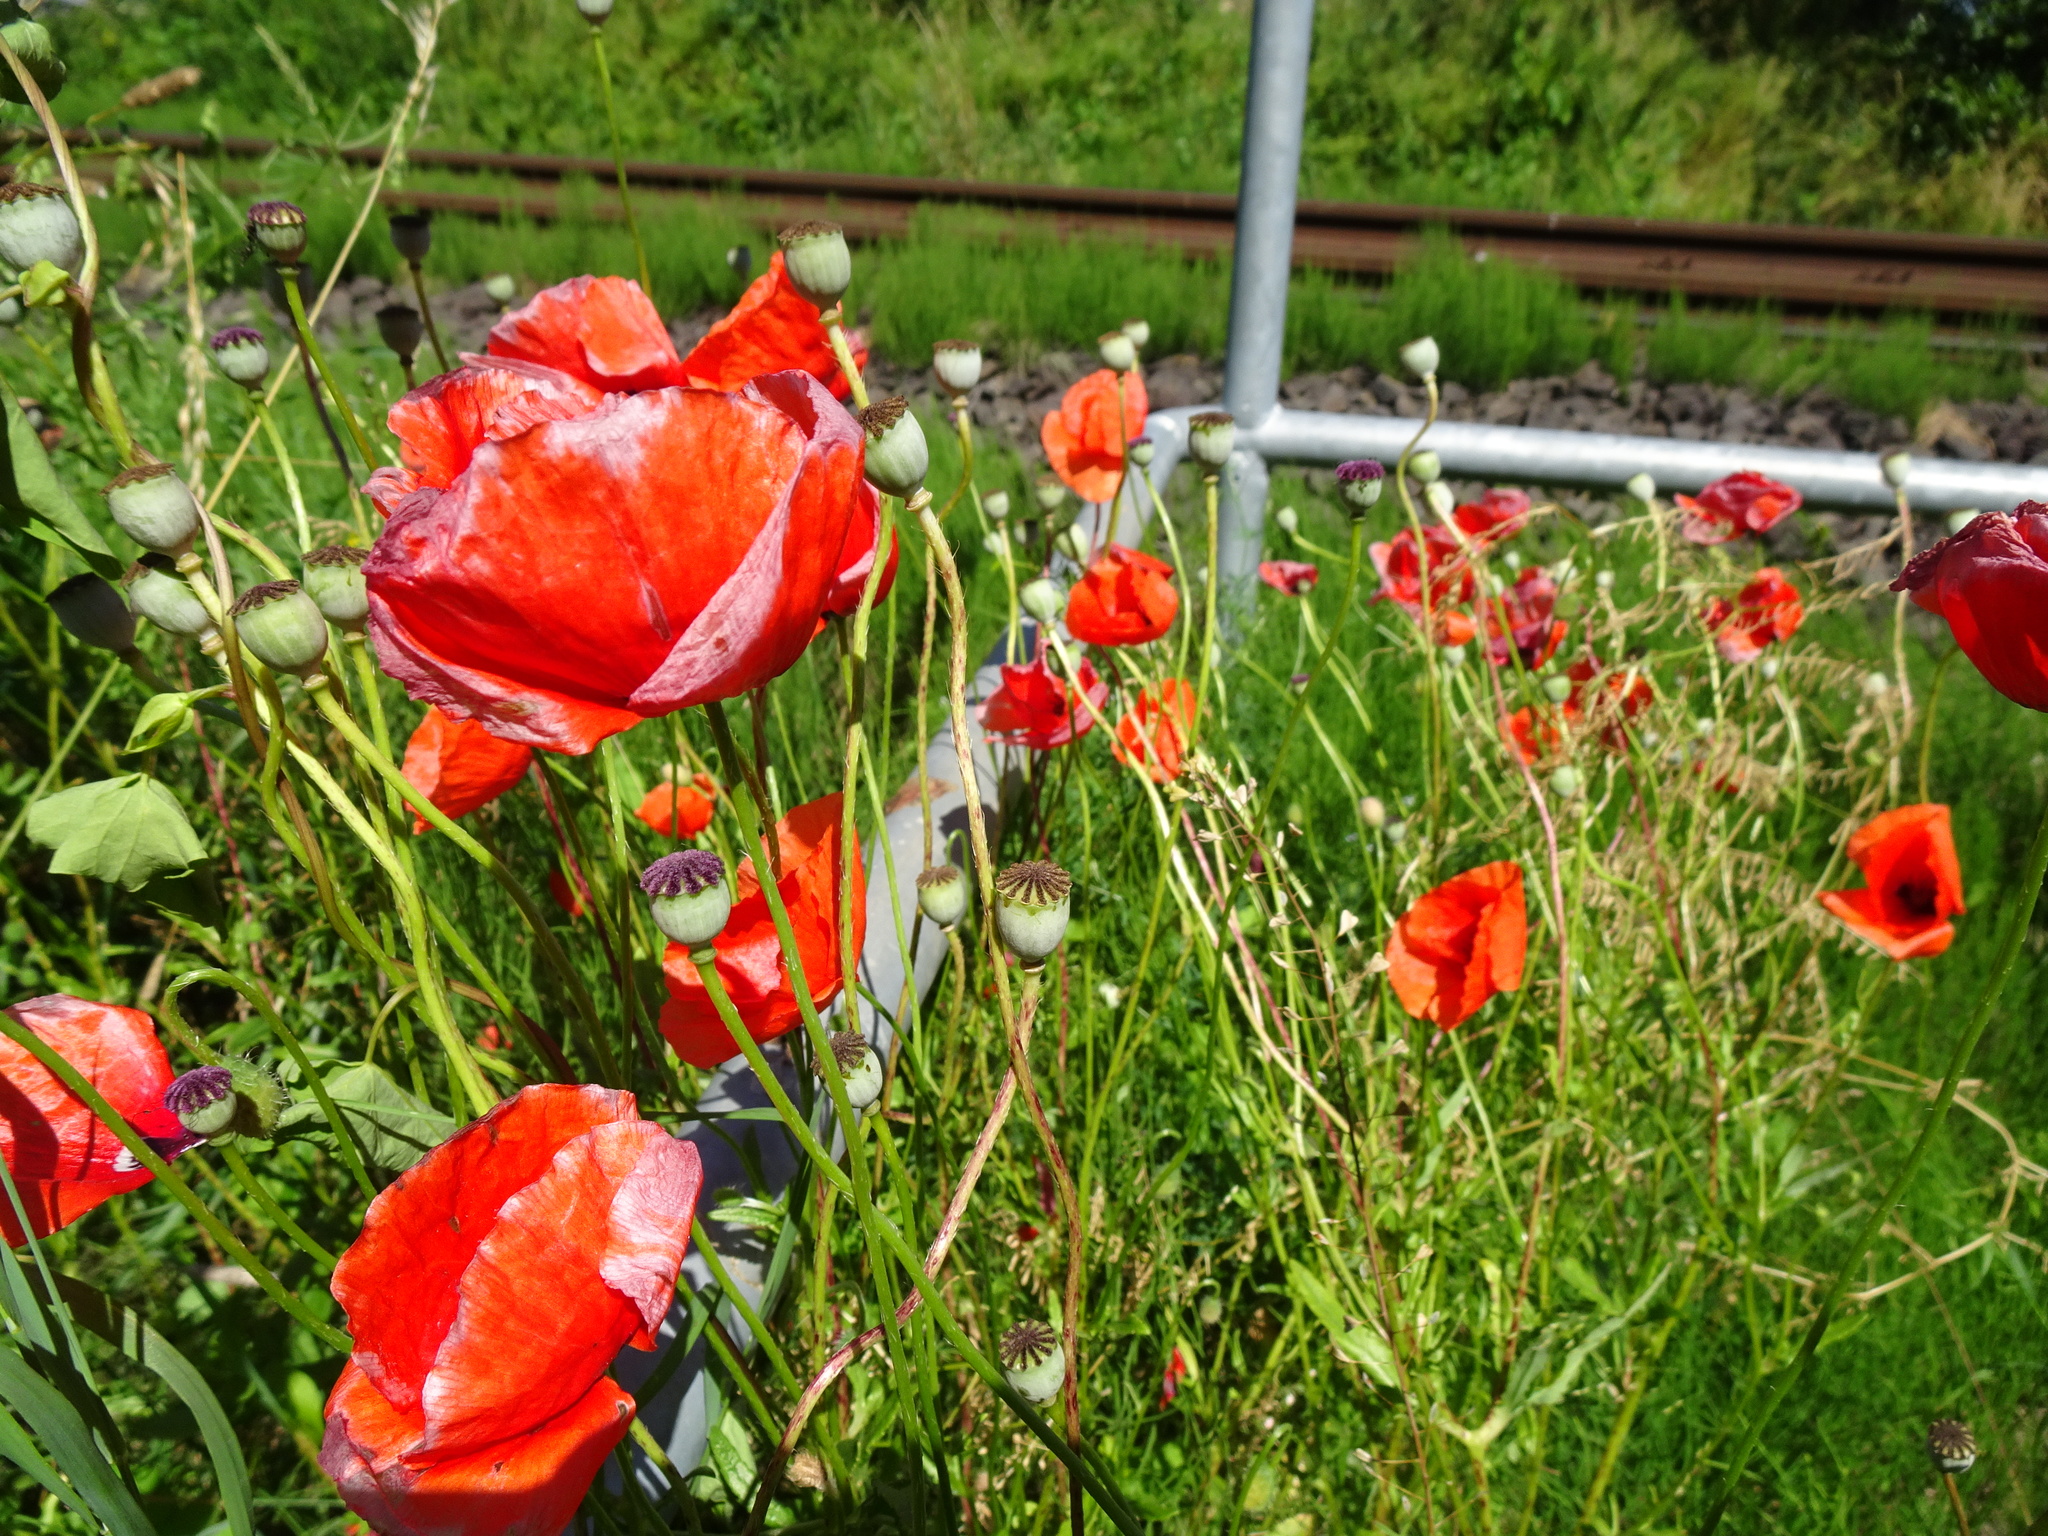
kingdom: Plantae
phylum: Tracheophyta
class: Magnoliopsida
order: Ranunculales
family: Papaveraceae
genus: Papaver
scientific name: Papaver rhoeas
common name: Corn poppy
